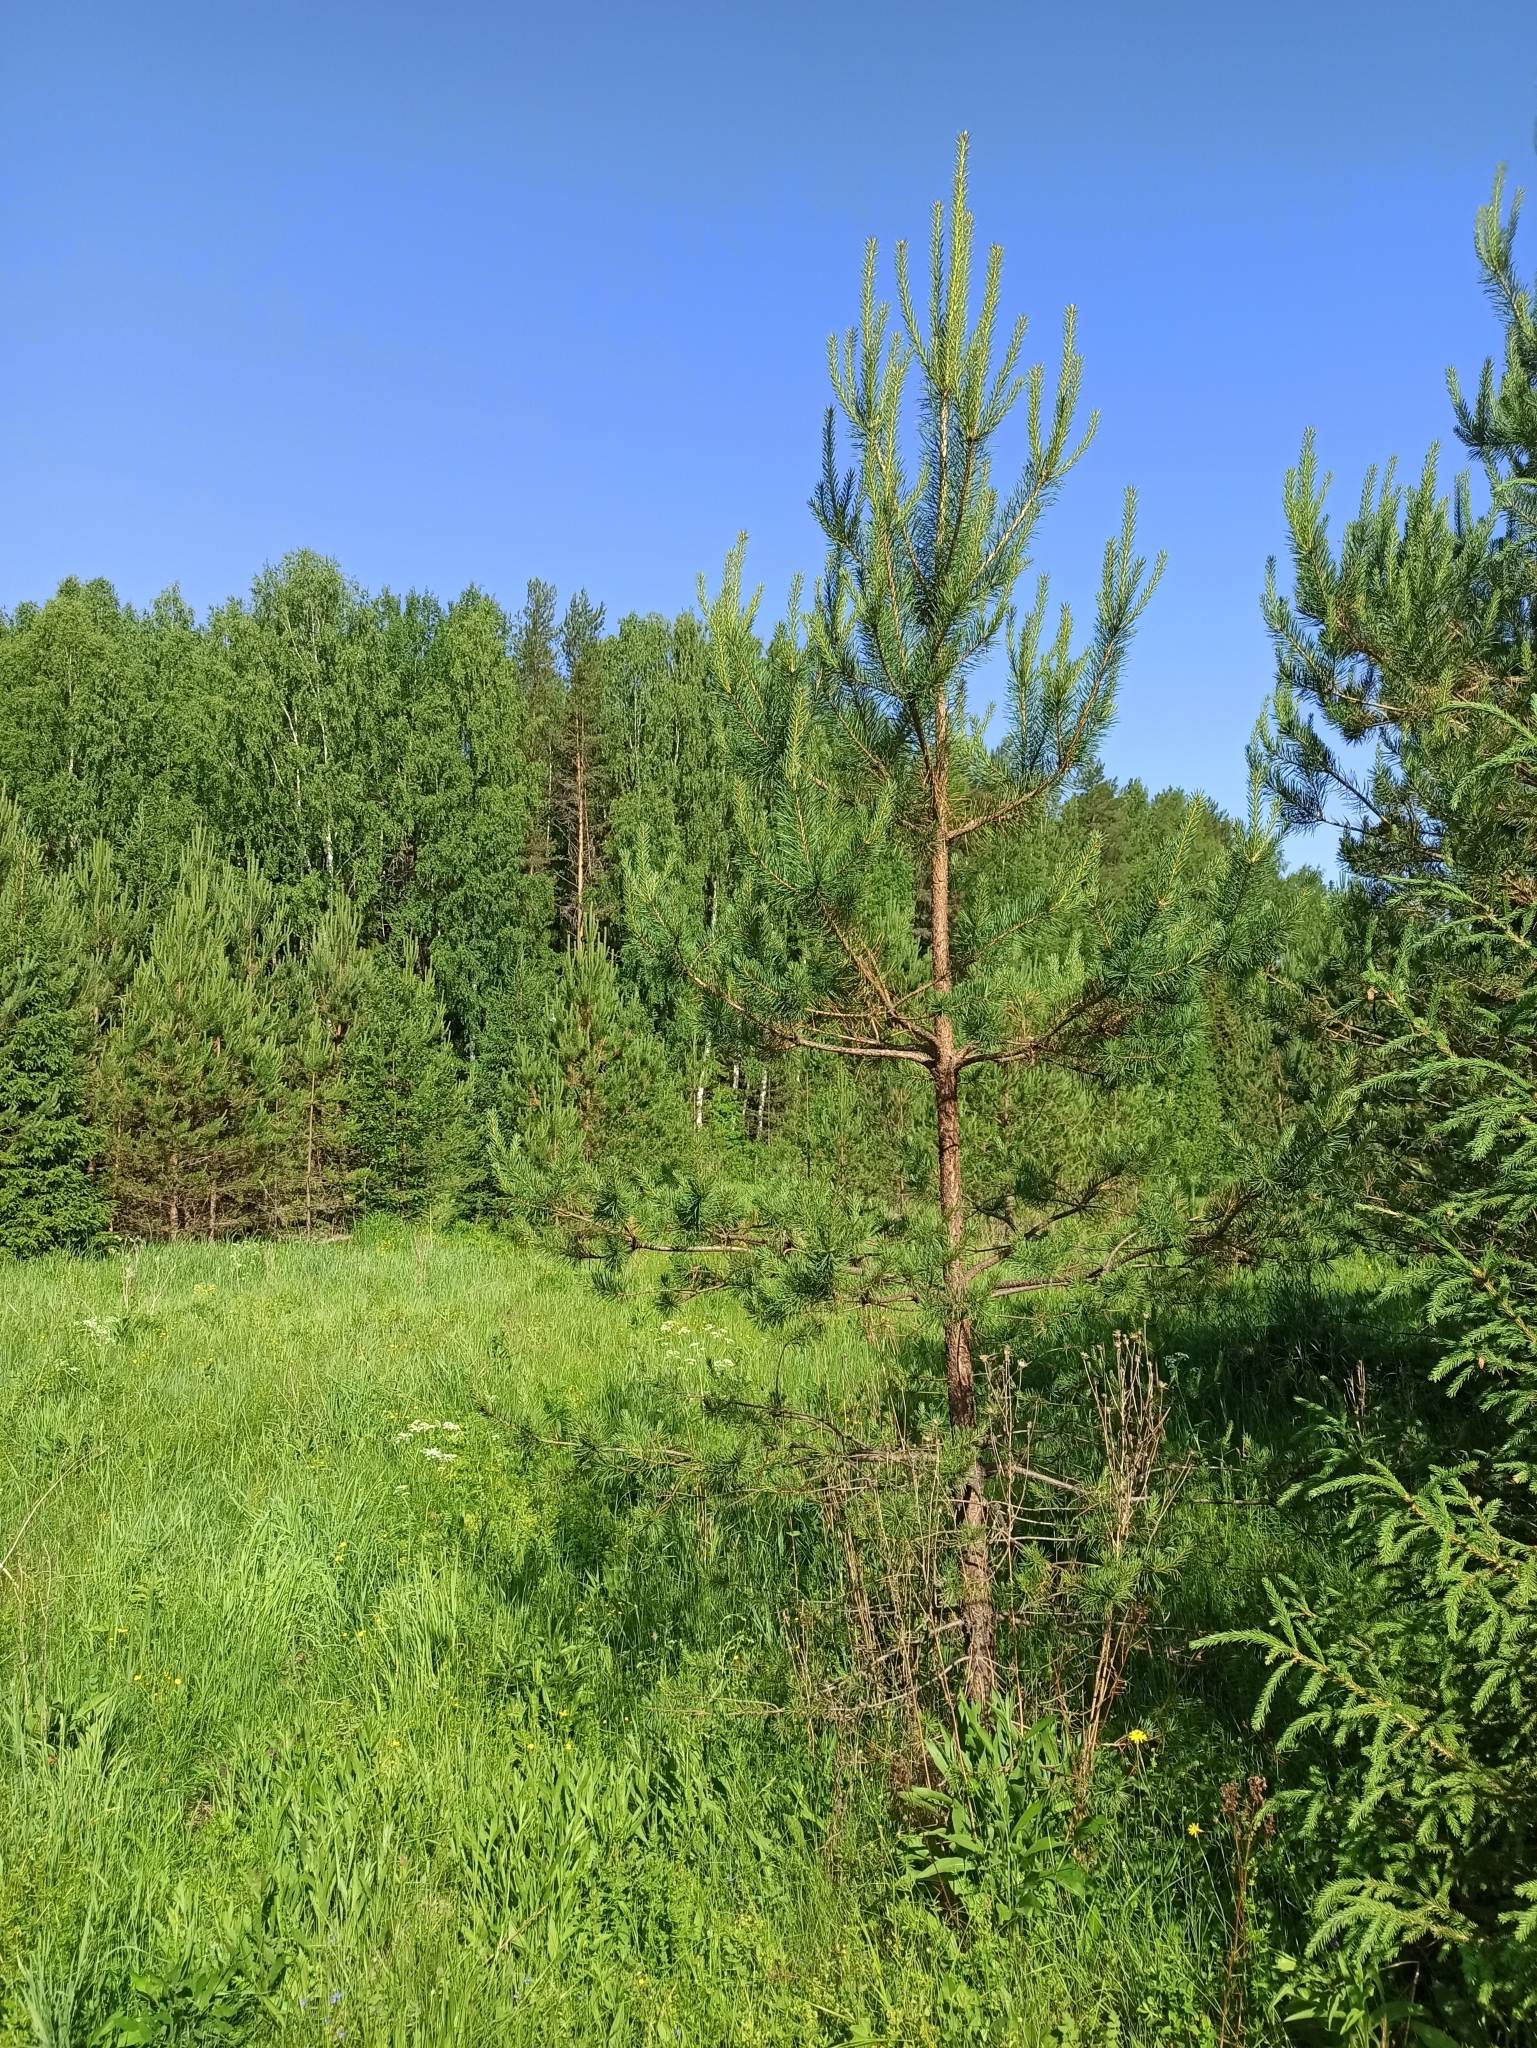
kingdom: Plantae
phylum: Tracheophyta
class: Pinopsida
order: Pinales
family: Pinaceae
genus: Pinus
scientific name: Pinus sylvestris
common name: Scots pine
